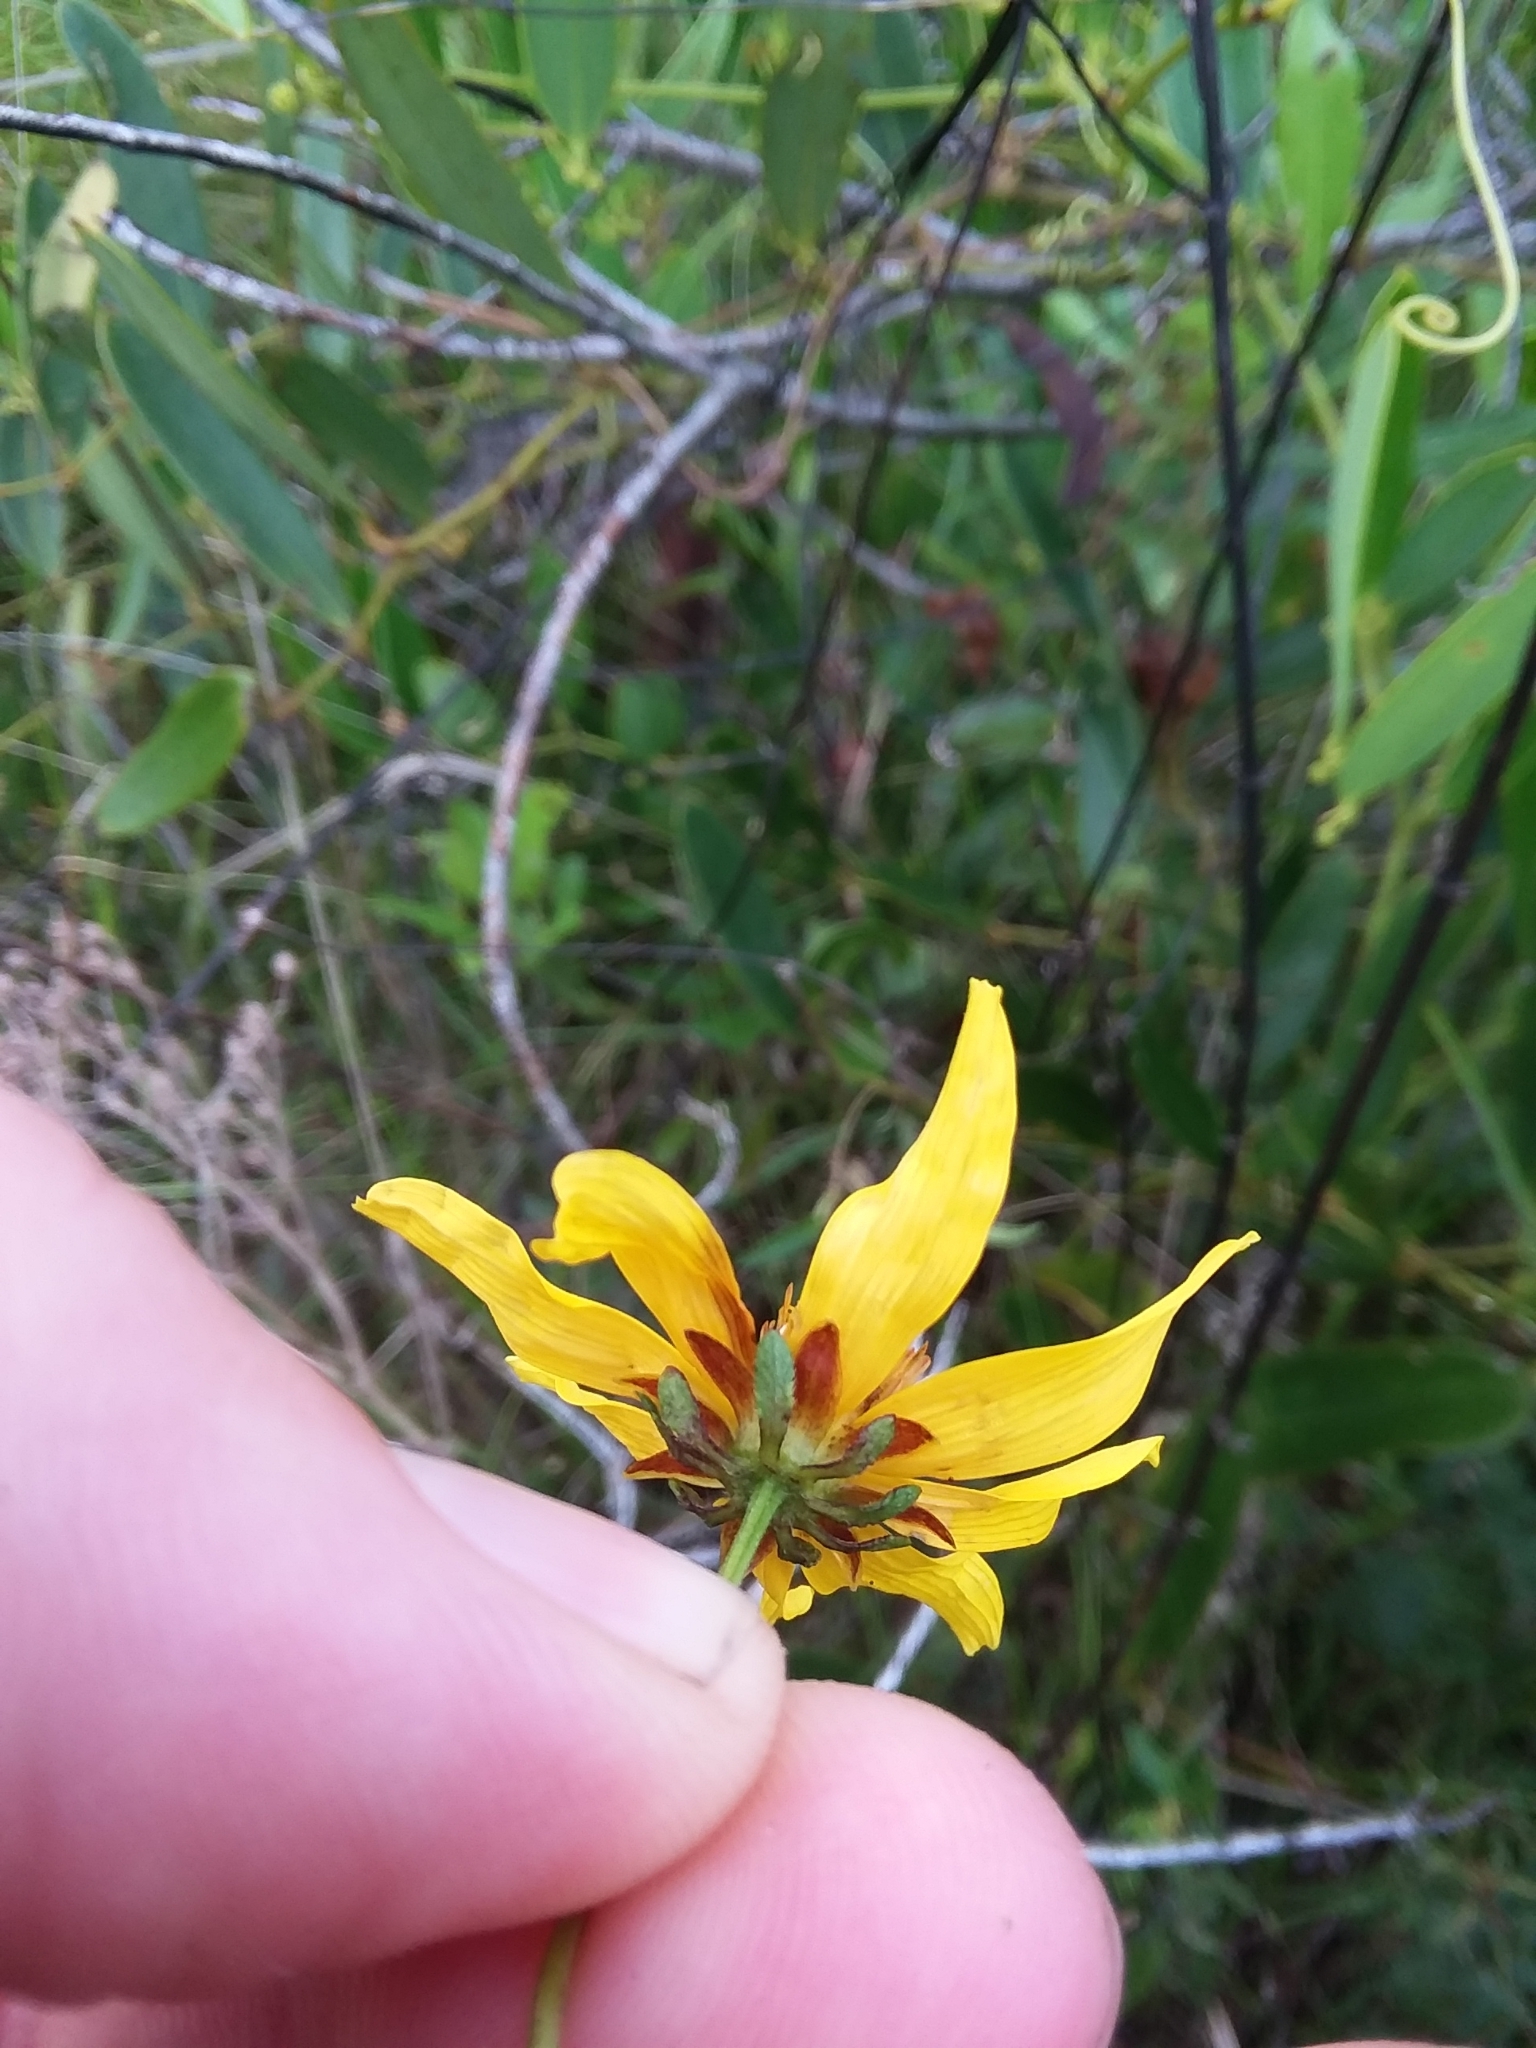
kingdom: Plantae
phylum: Tracheophyta
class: Magnoliopsida
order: Asterales
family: Asteraceae
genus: Bidens
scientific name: Bidens mitis
